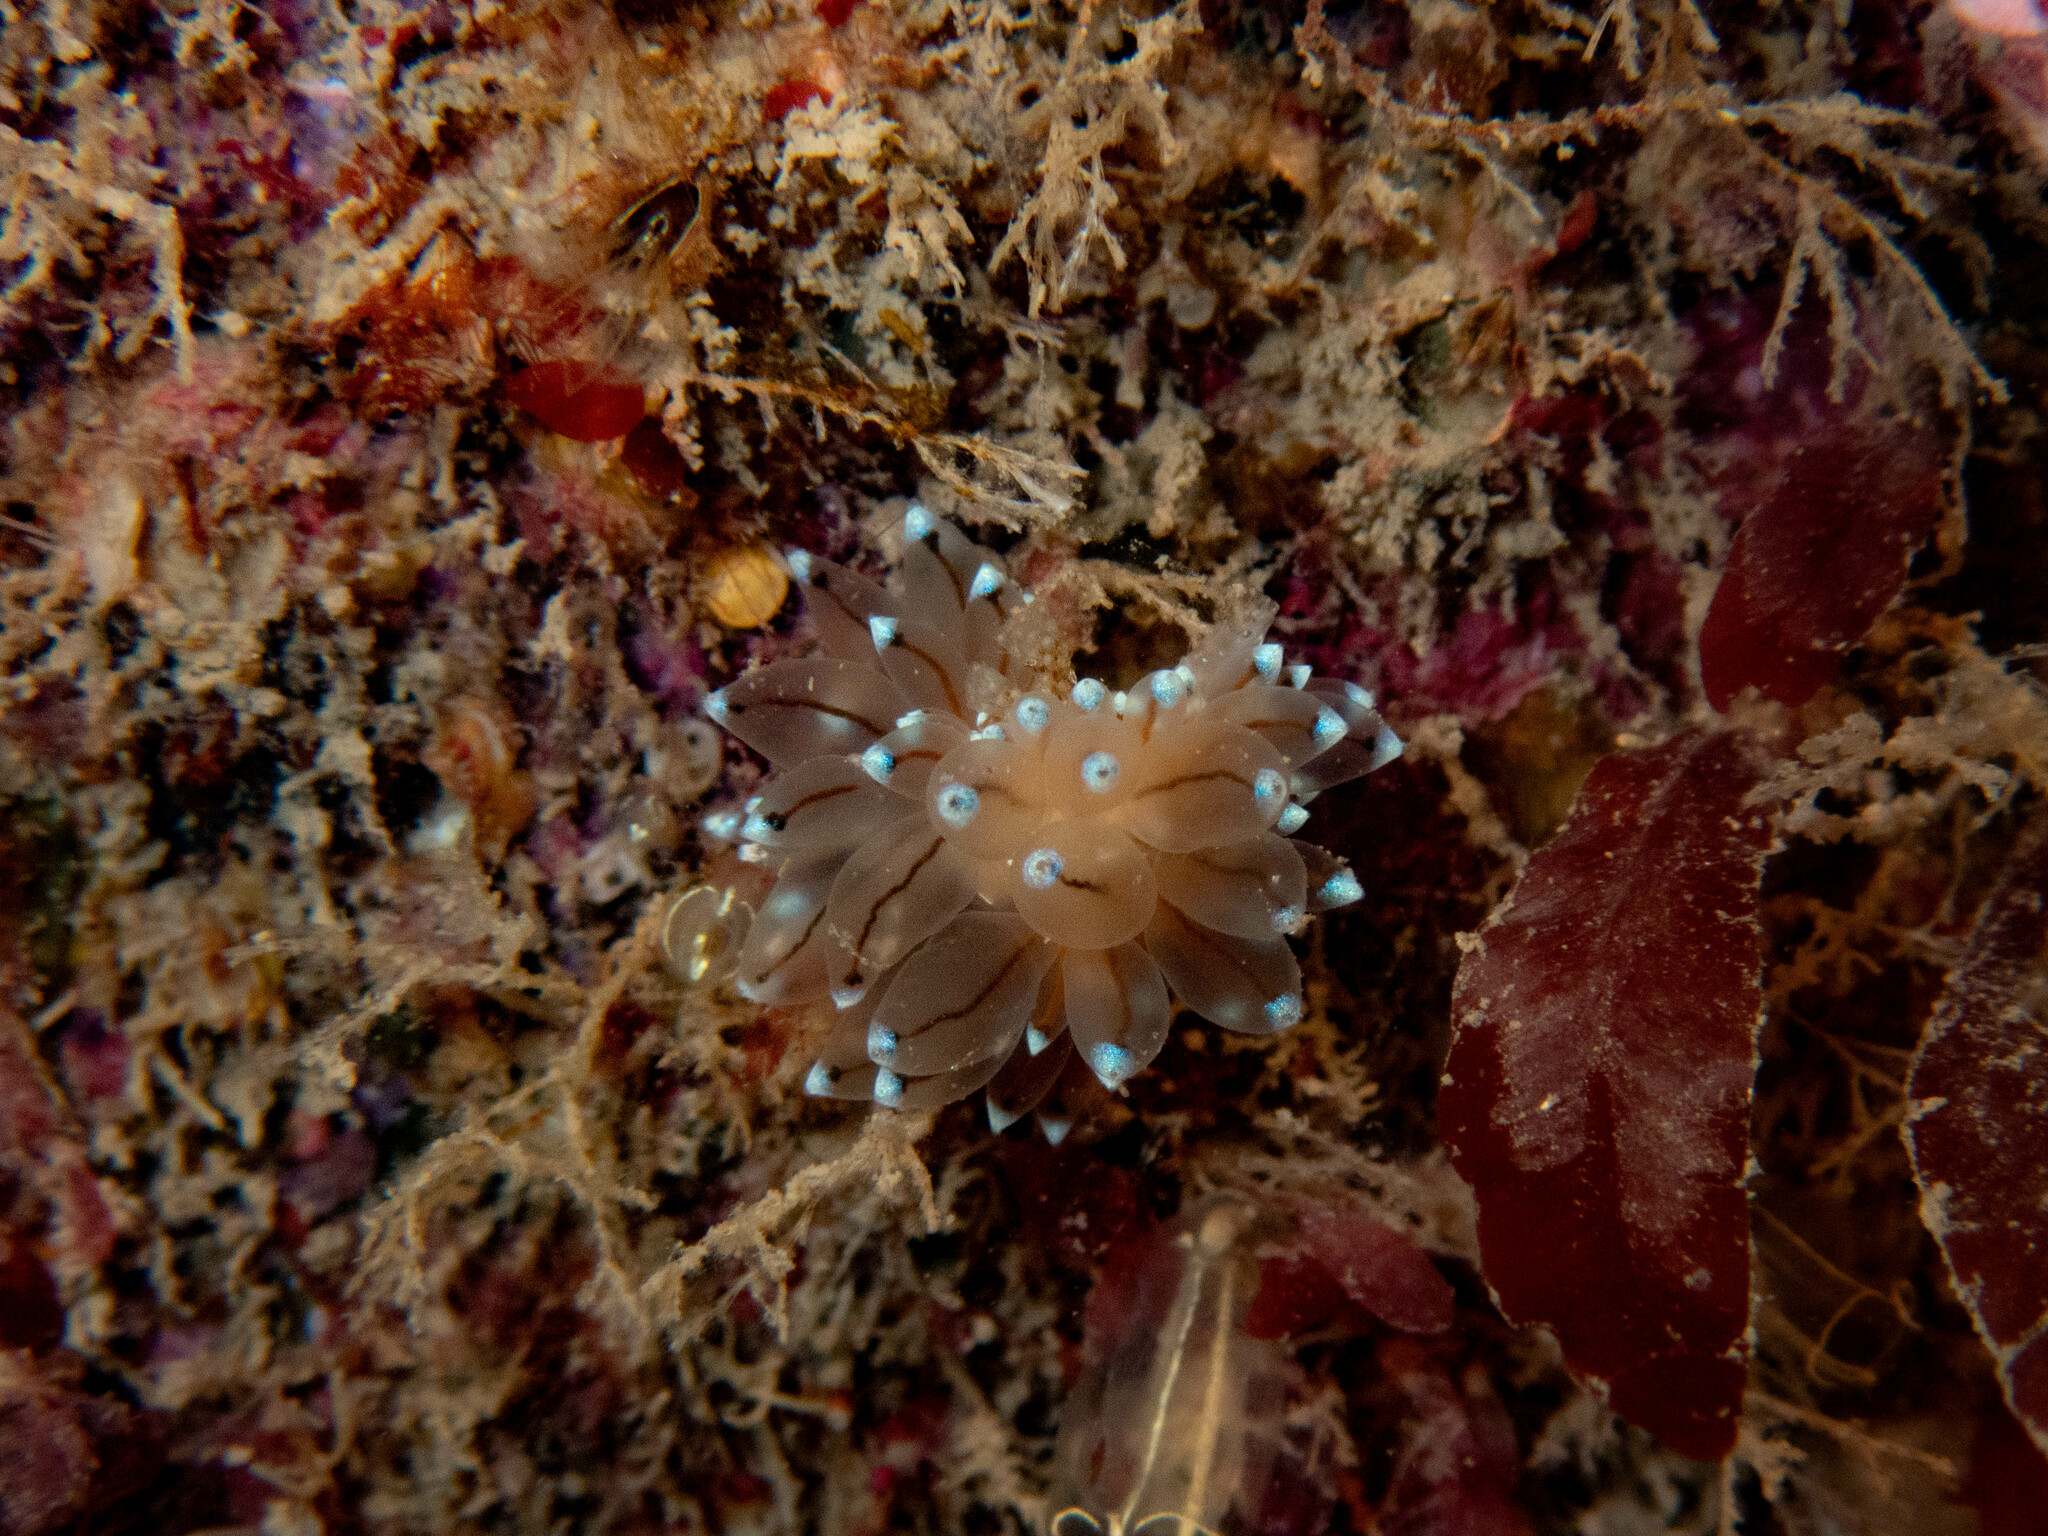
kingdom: Animalia
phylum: Mollusca
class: Gastropoda
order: Nudibranchia
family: Janolidae
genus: Antiopella
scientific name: Antiopella cristata
